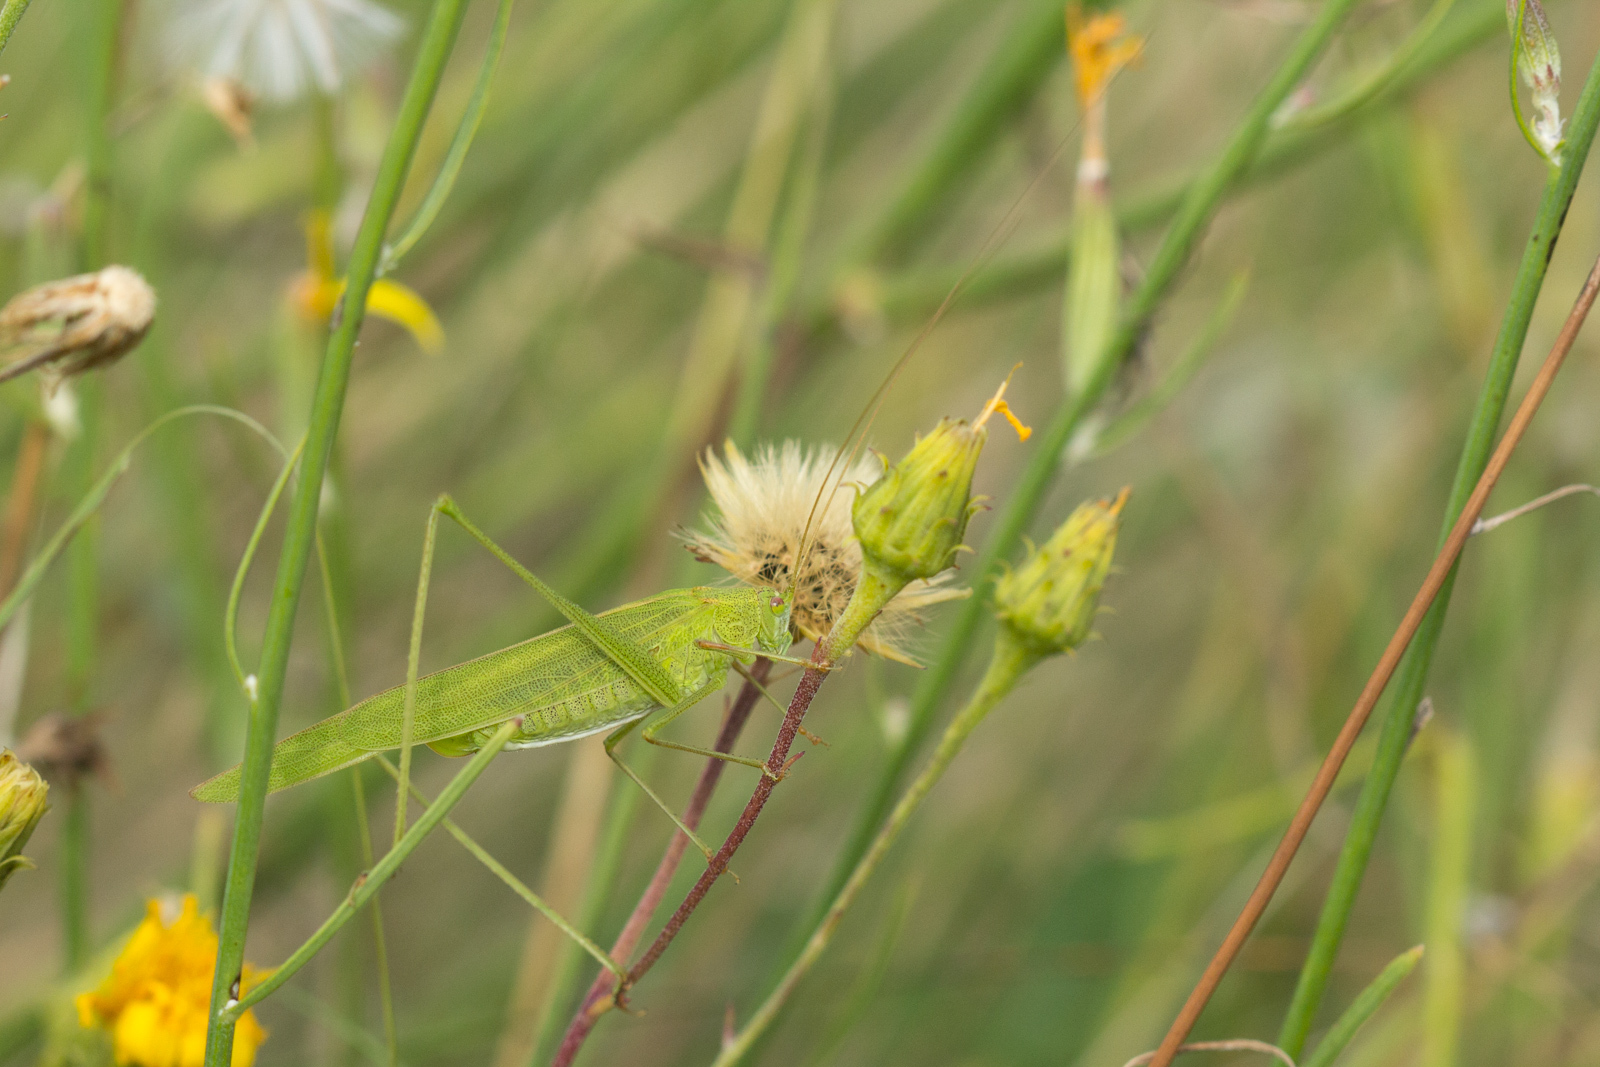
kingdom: Animalia
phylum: Arthropoda
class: Insecta
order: Orthoptera
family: Tettigoniidae
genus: Phaneroptera
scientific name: Phaneroptera falcata
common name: Sickle-bearing bush-cricket
